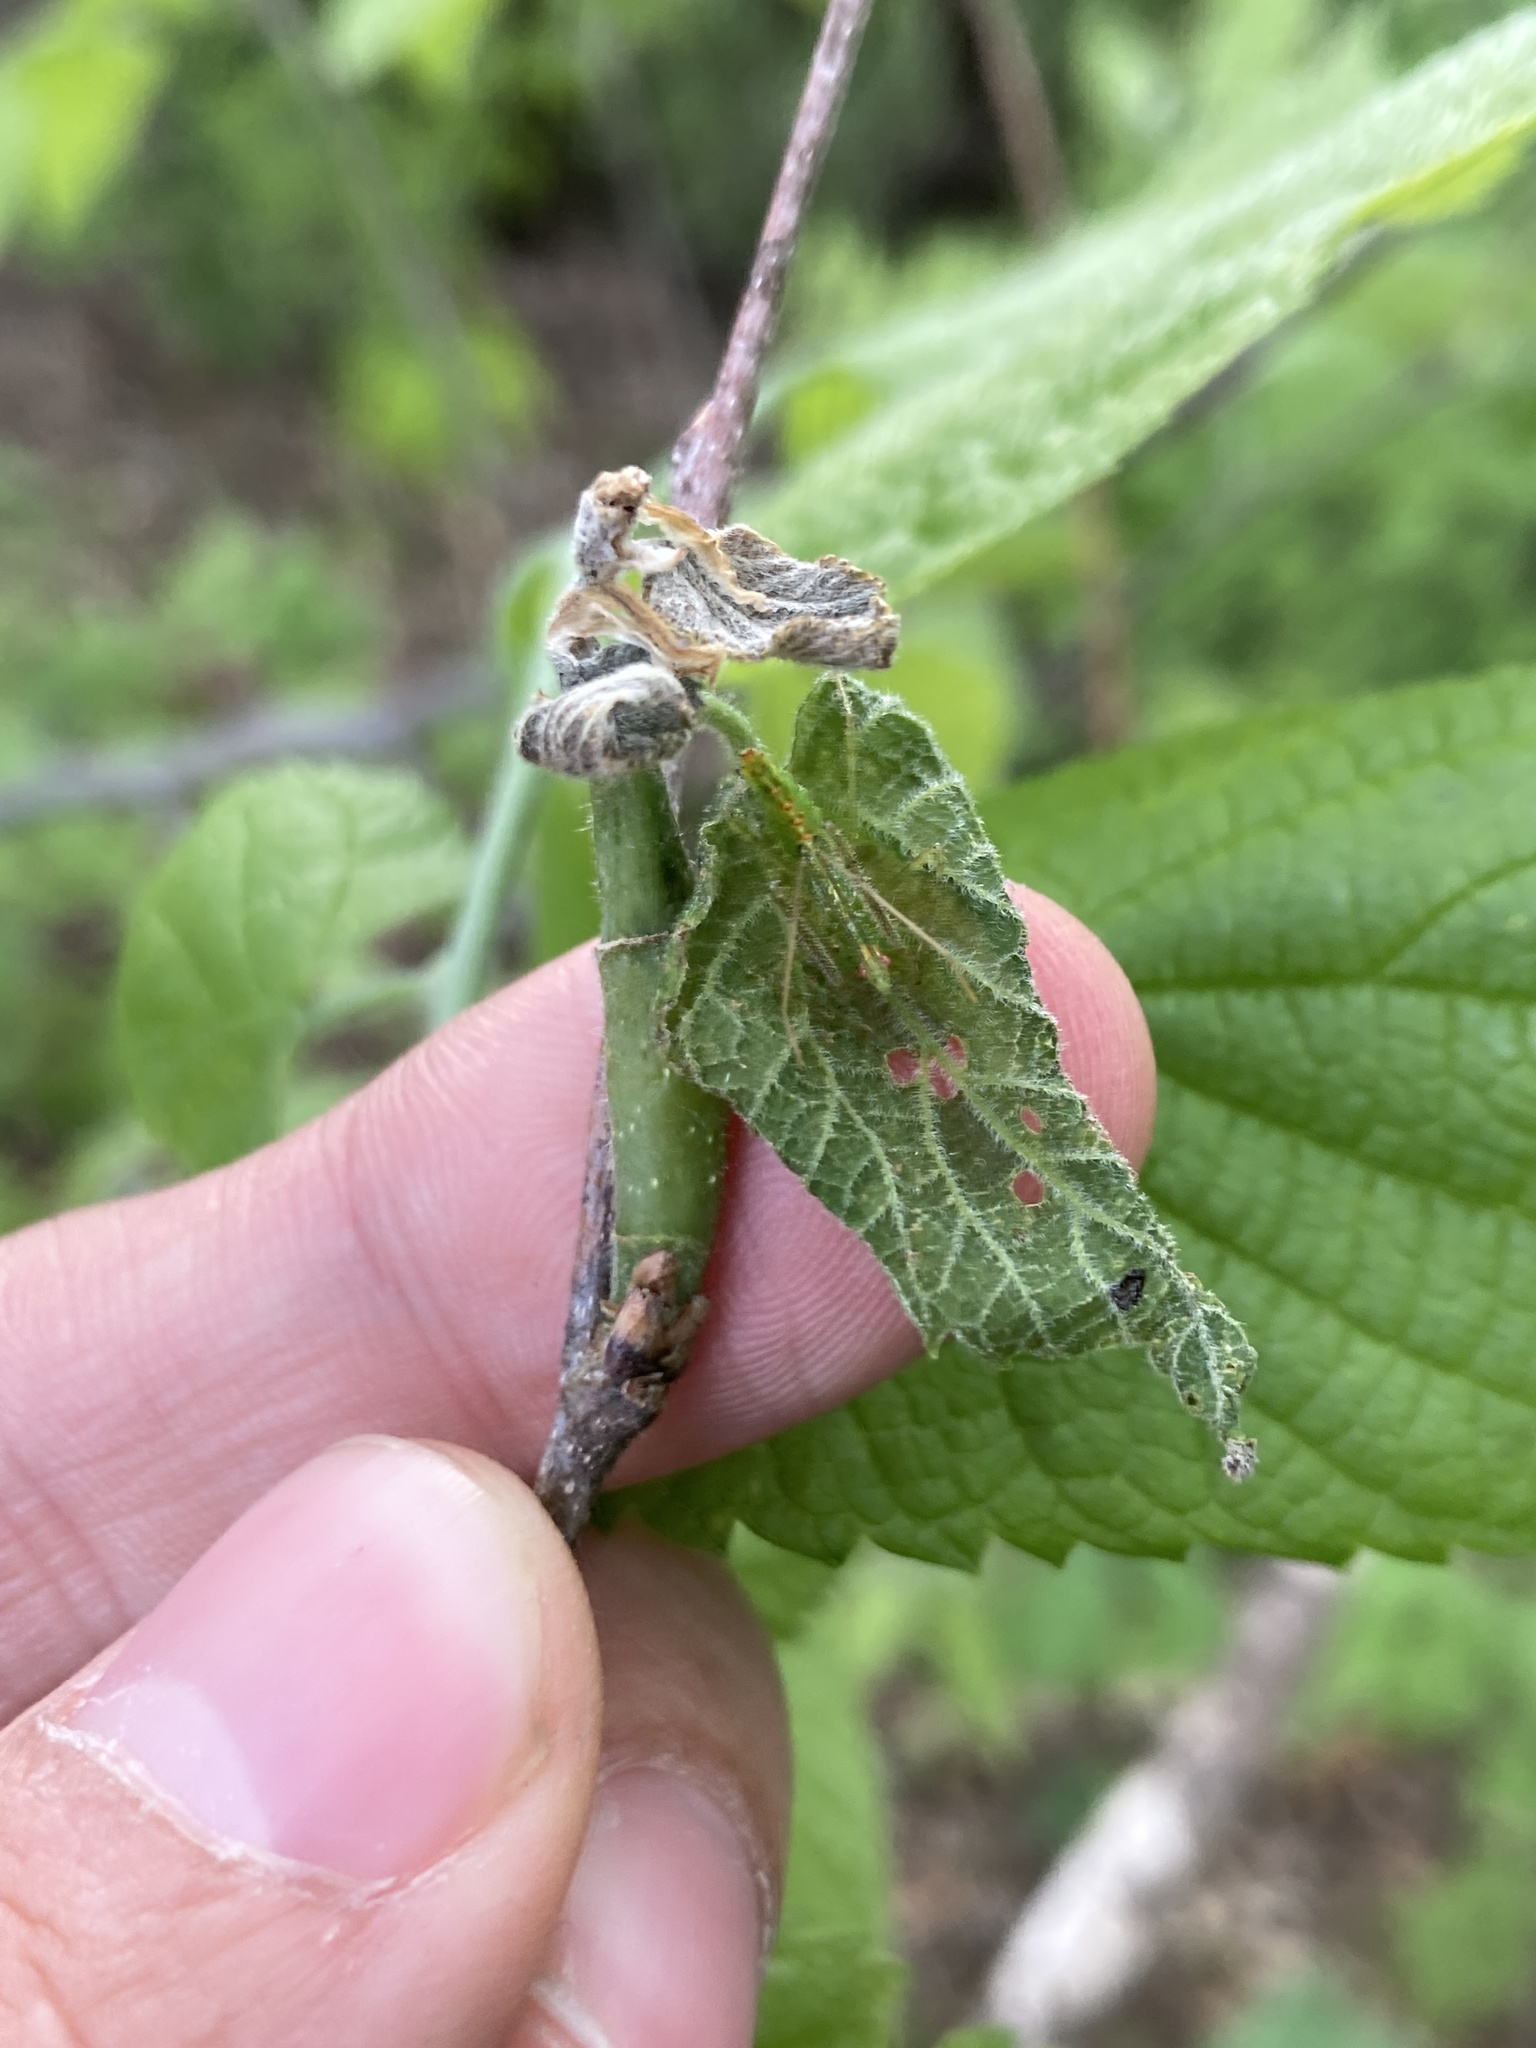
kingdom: Animalia
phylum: Arthropoda
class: Insecta
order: Diptera
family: Agromyzidae
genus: Agromyza
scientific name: Agromyza deserta
